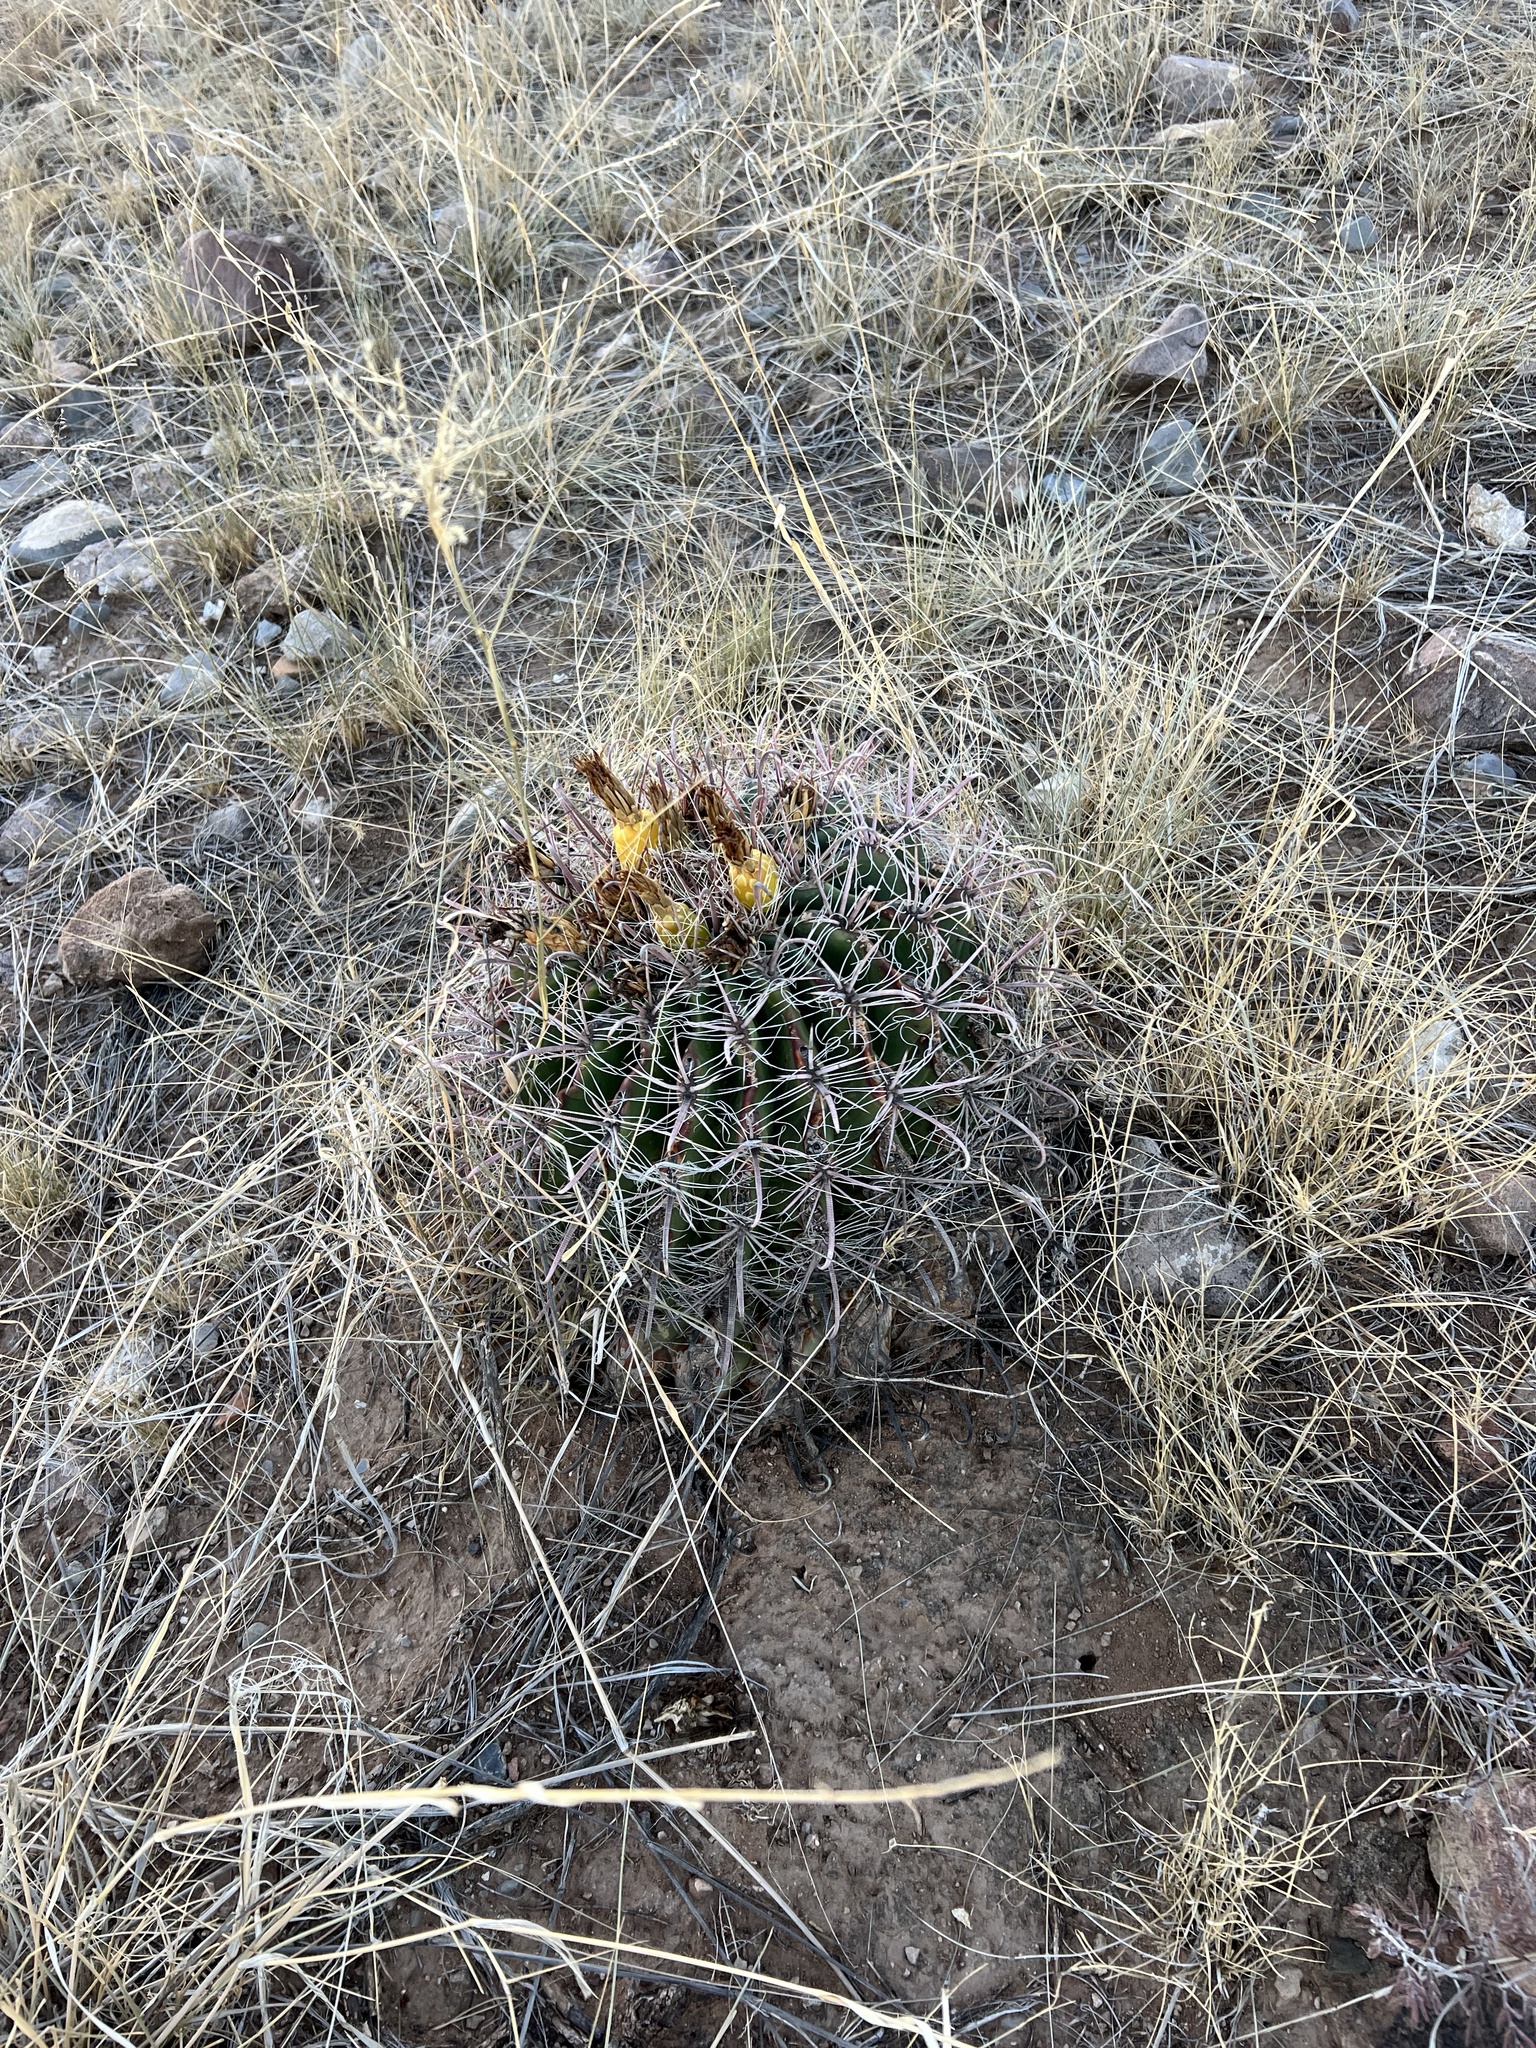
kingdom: Plantae
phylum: Tracheophyta
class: Magnoliopsida
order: Caryophyllales
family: Cactaceae
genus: Ferocactus
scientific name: Ferocactus wislizeni
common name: Candy barrel cactus
